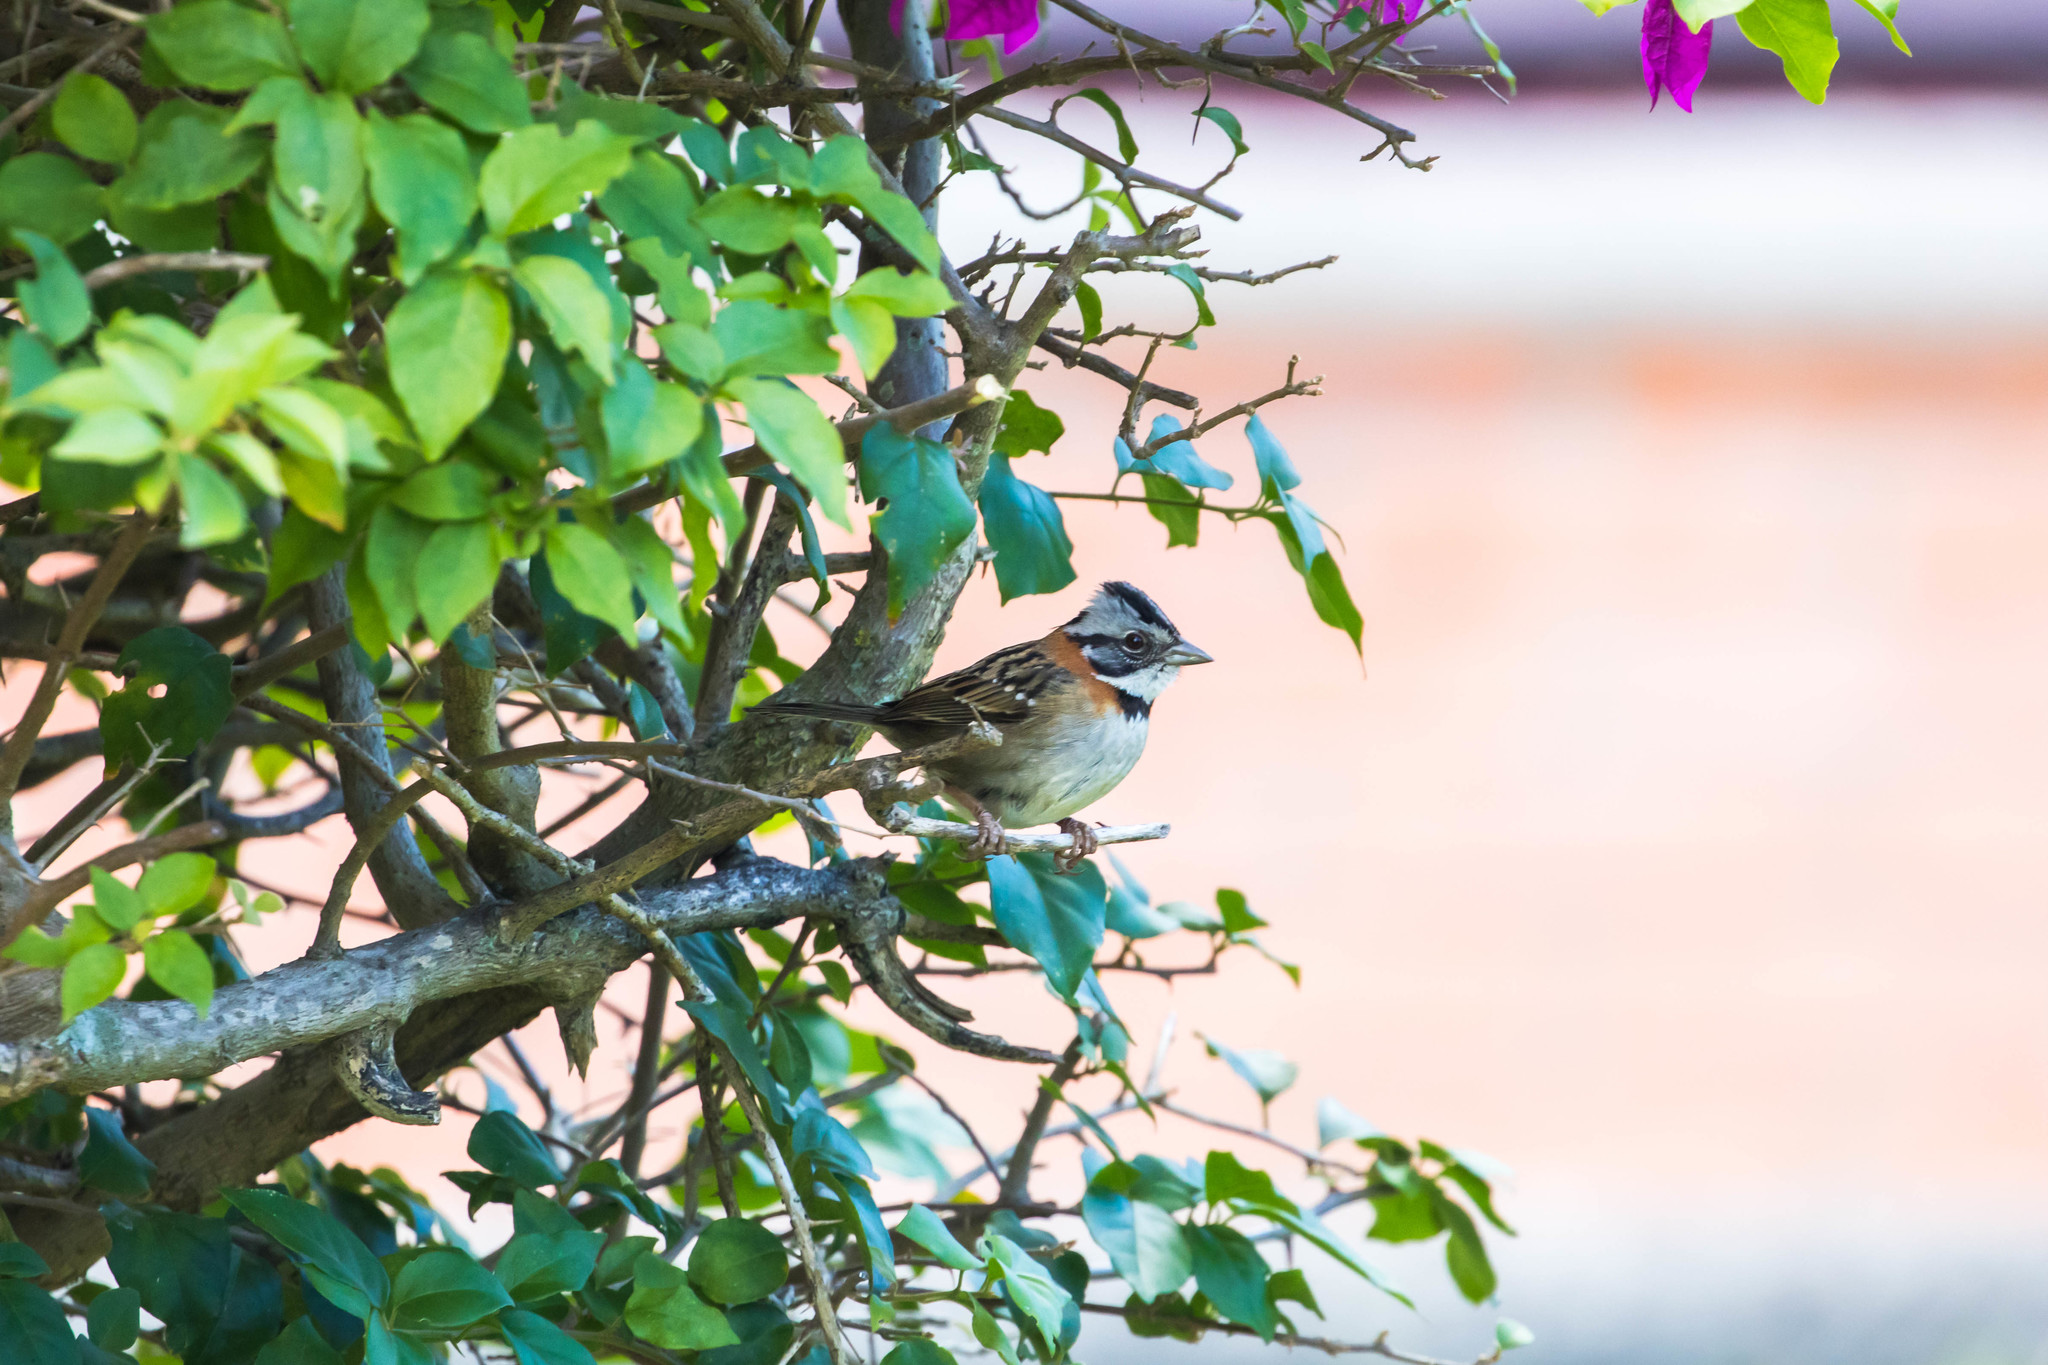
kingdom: Animalia
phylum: Chordata
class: Aves
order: Passeriformes
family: Passerellidae
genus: Zonotrichia
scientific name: Zonotrichia capensis
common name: Rufous-collared sparrow
